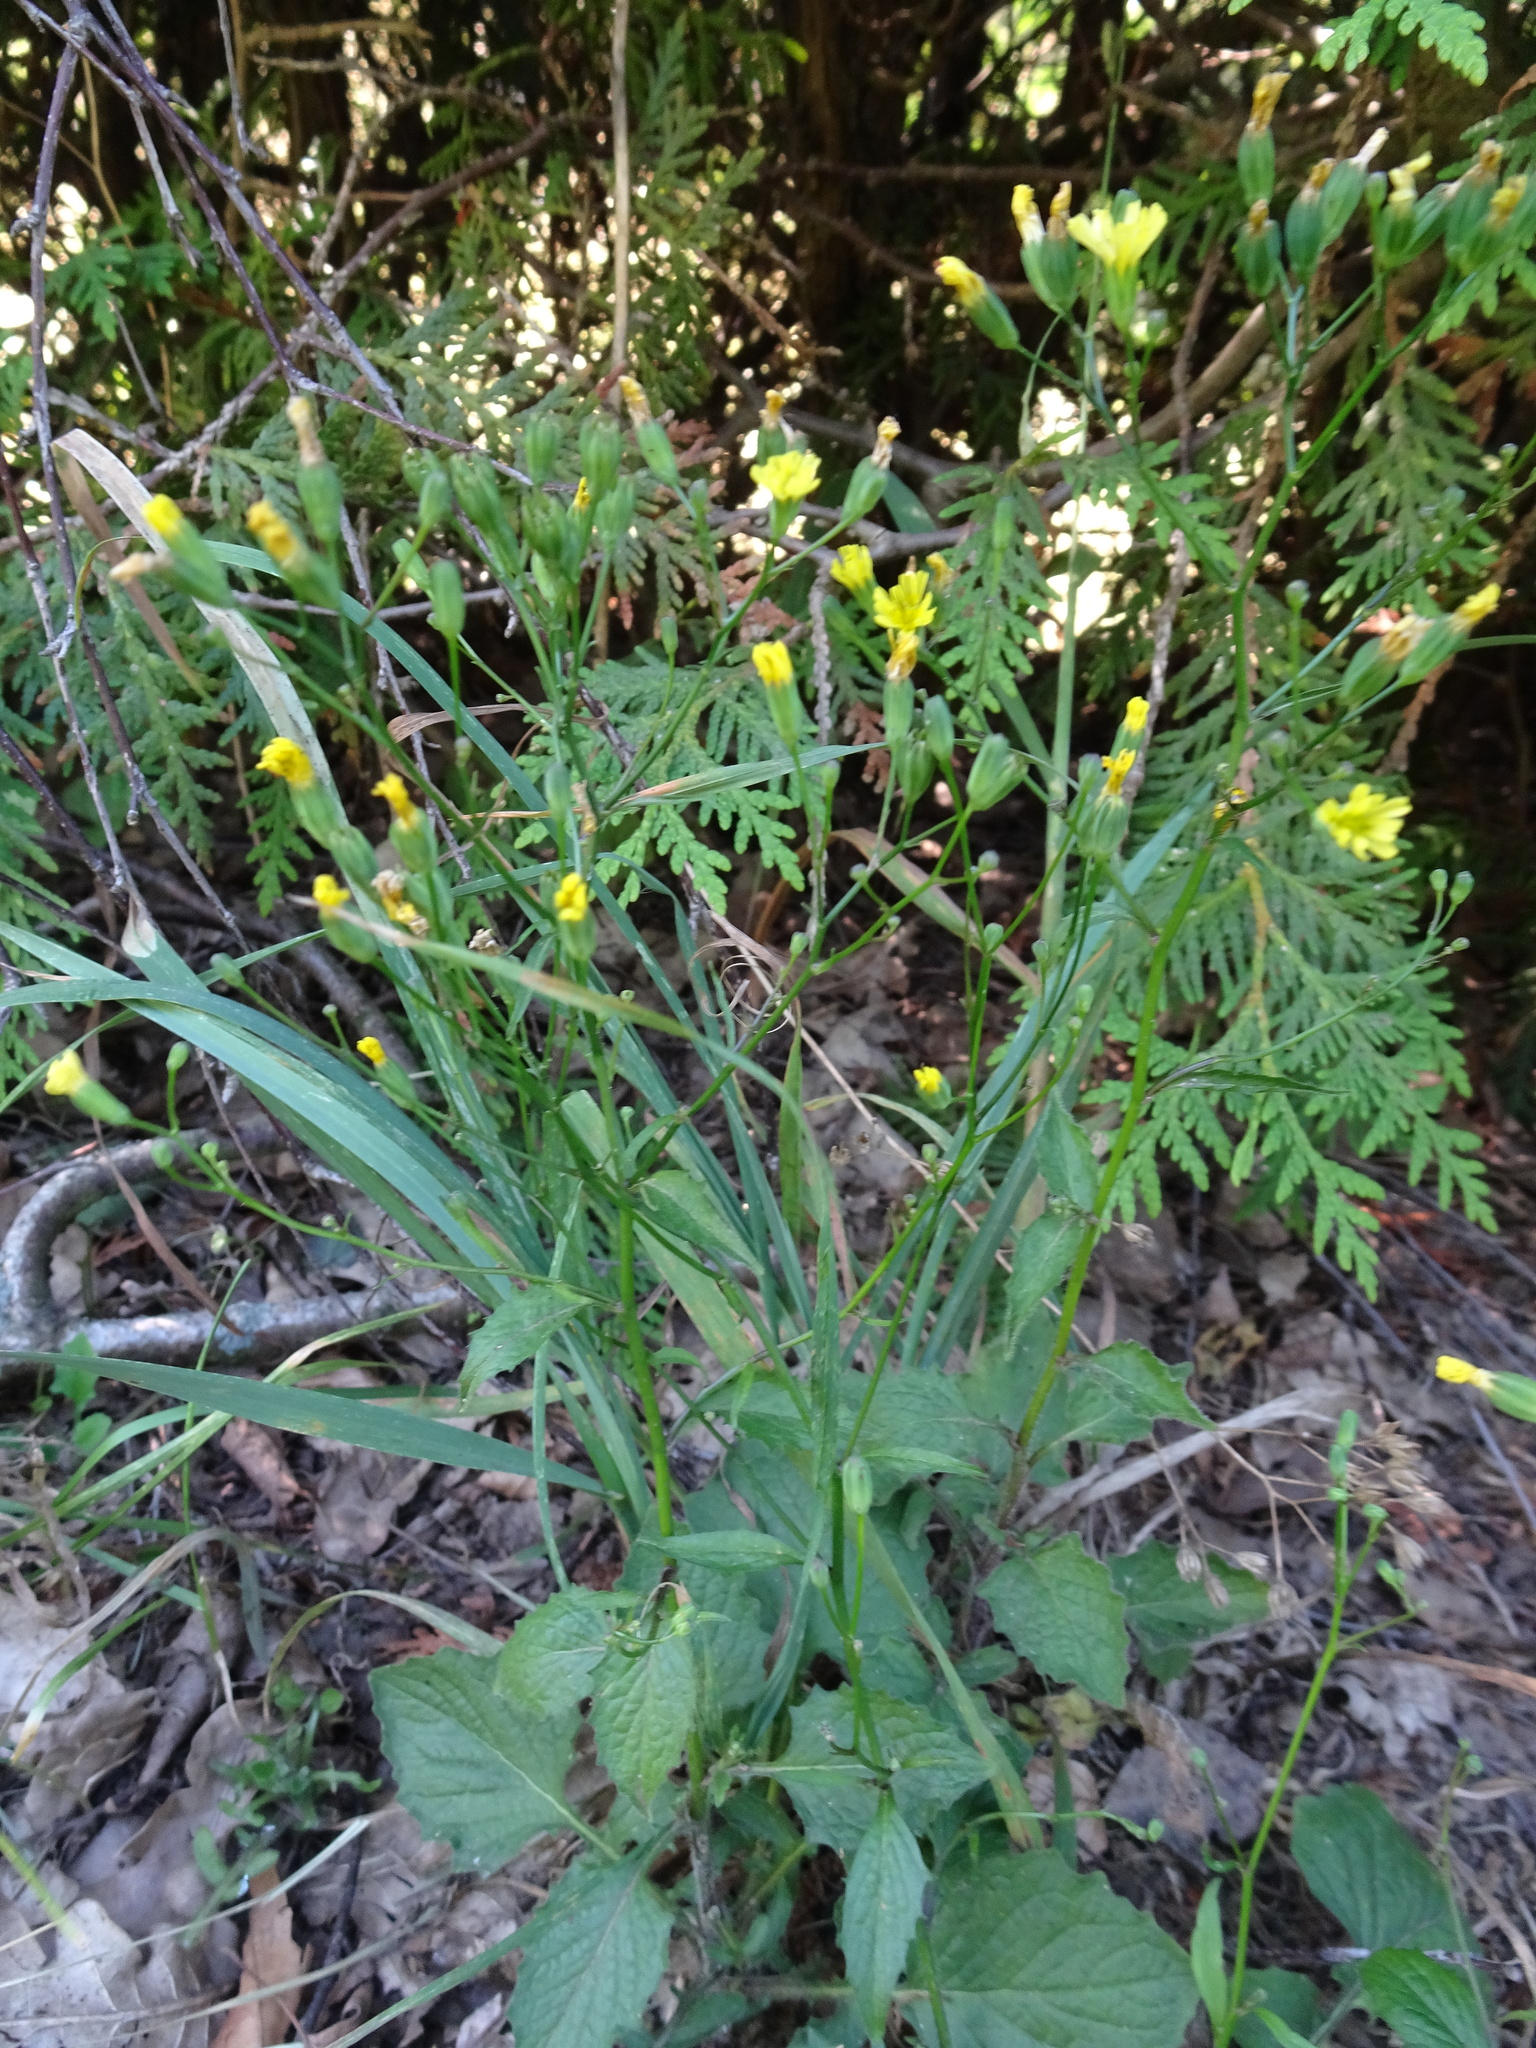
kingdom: Plantae
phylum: Tracheophyta
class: Magnoliopsida
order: Asterales
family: Asteraceae
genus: Lapsana
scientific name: Lapsana communis
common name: Nipplewort
